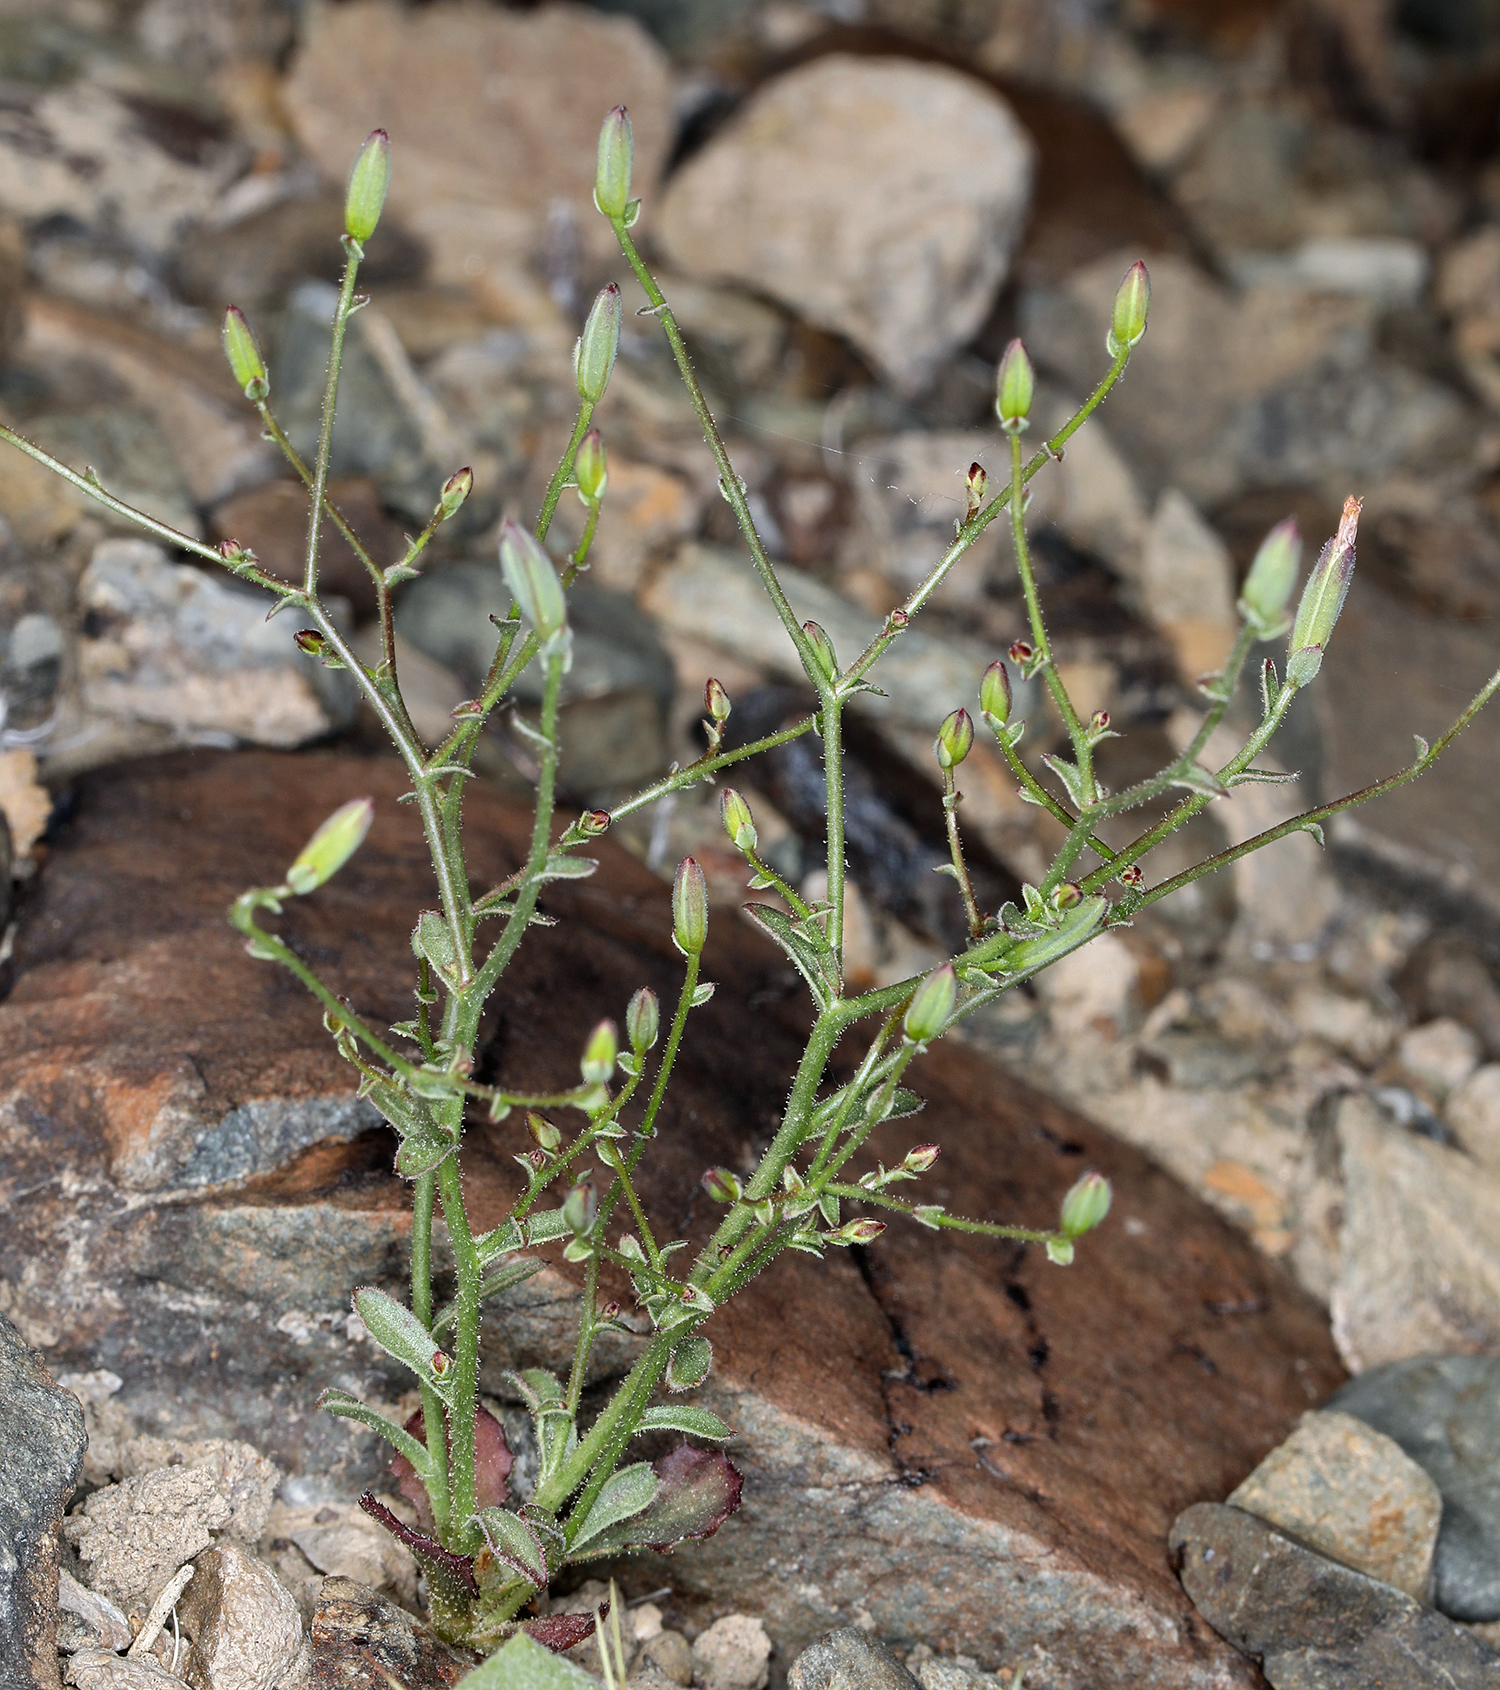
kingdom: Plantae
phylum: Tracheophyta
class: Magnoliopsida
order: Asterales
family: Asteraceae
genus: Lygodesmia
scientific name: Lygodesmia exigua
